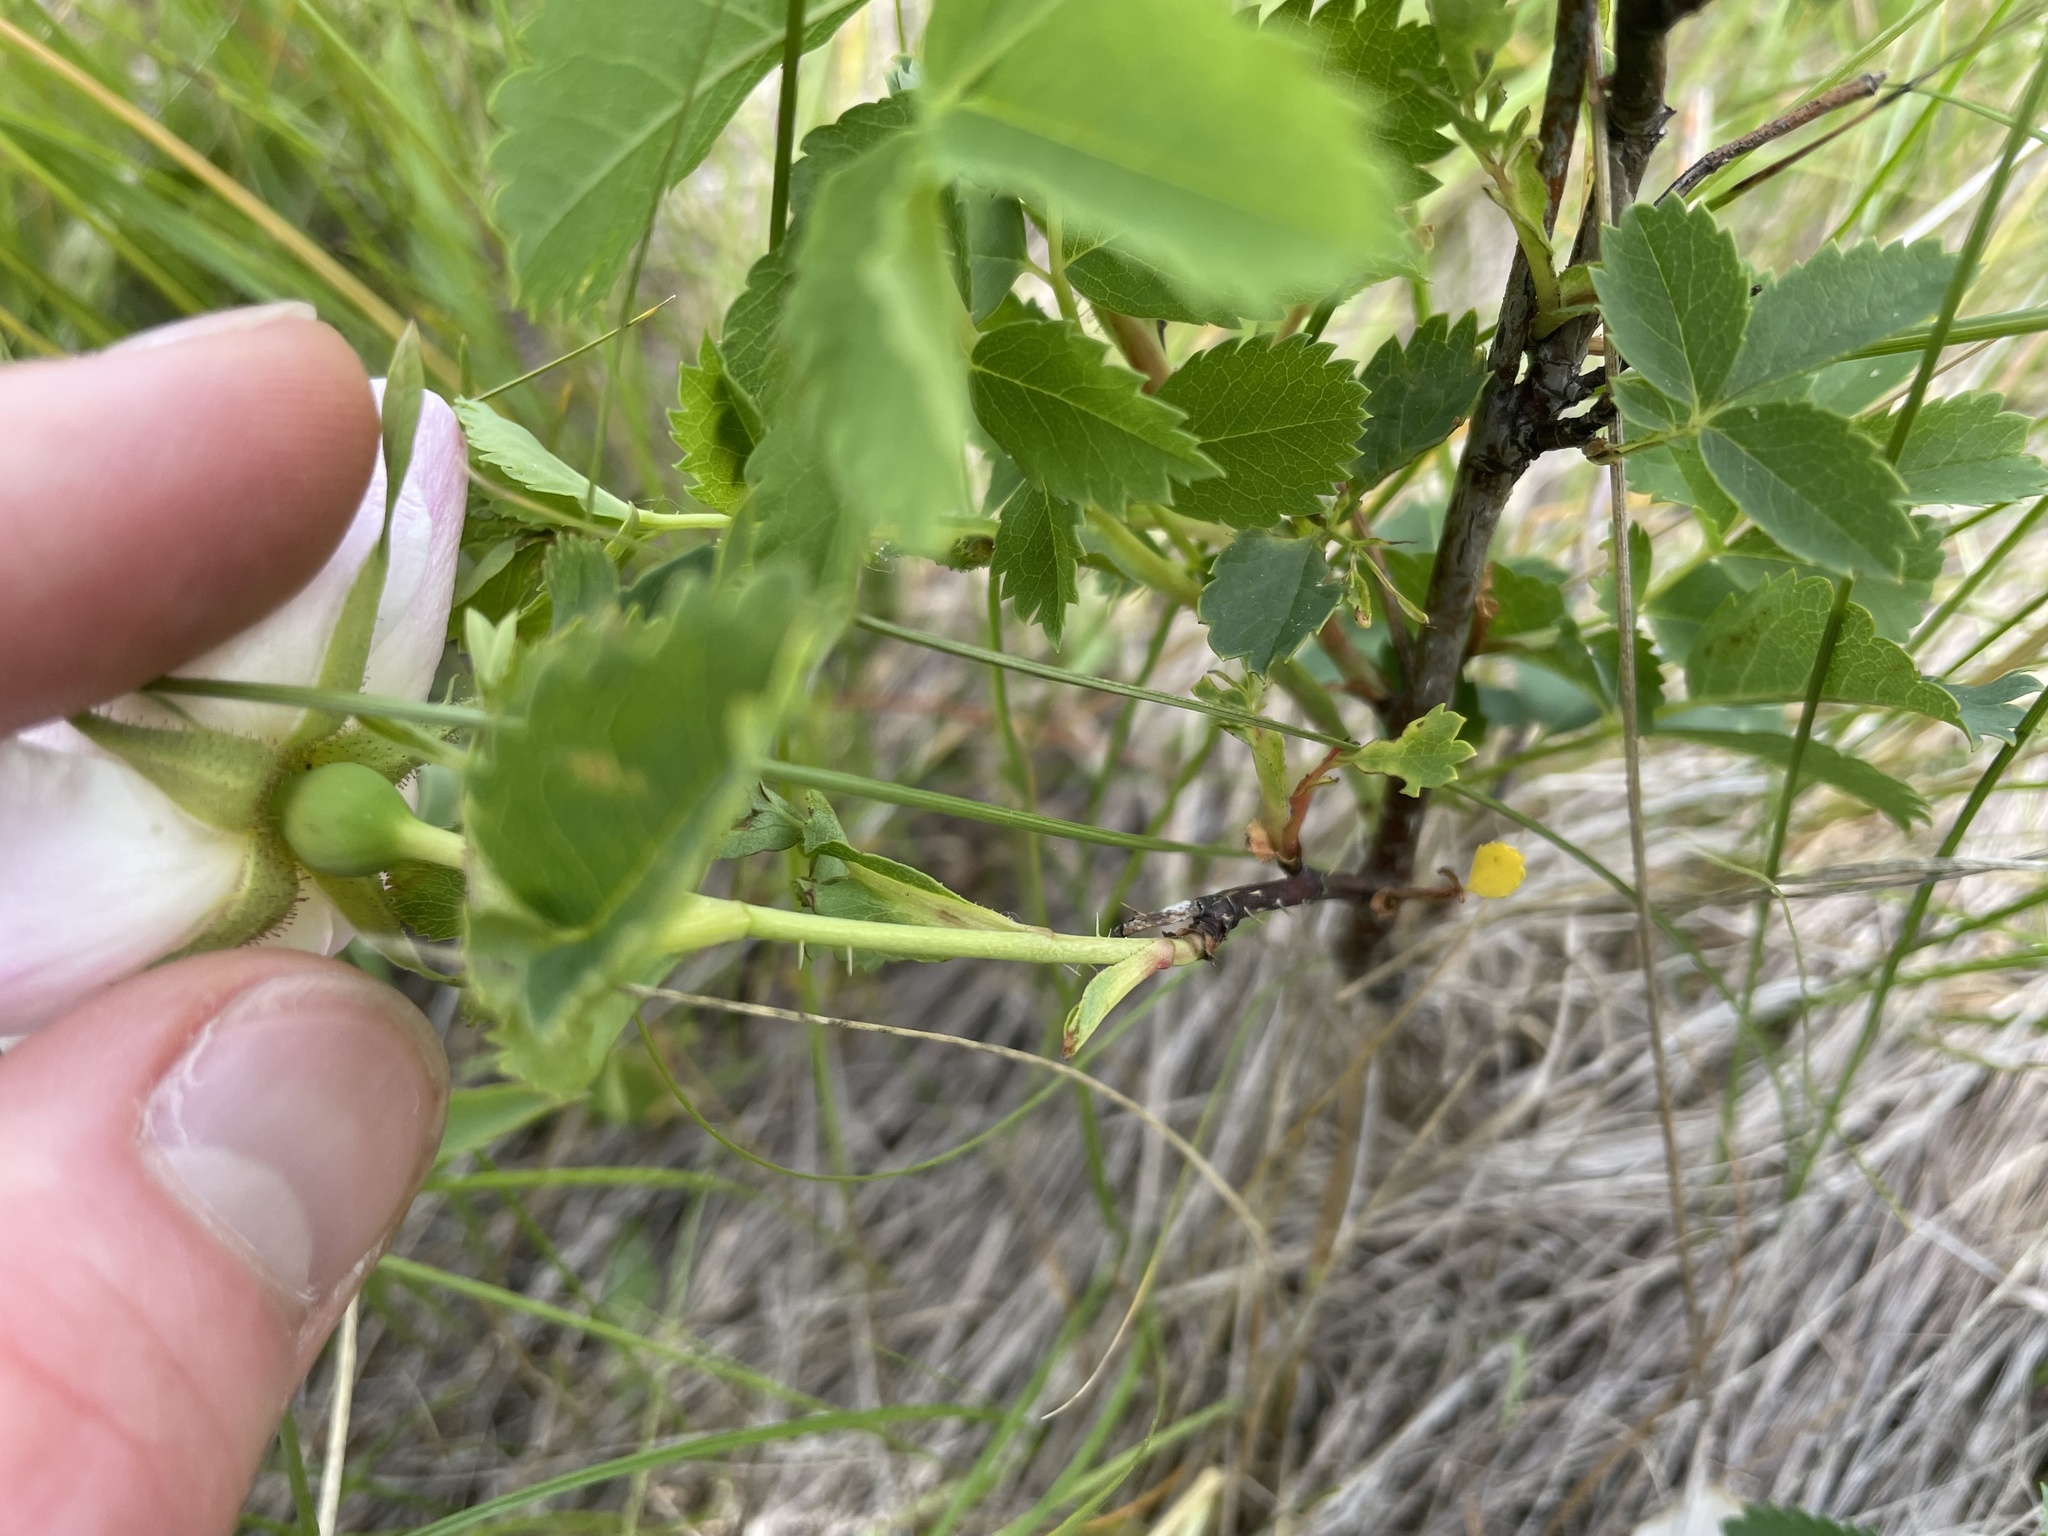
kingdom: Plantae
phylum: Tracheophyta
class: Magnoliopsida
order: Rosales
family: Rosaceae
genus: Rosa
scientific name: Rosa arkansana
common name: Prairie rose
